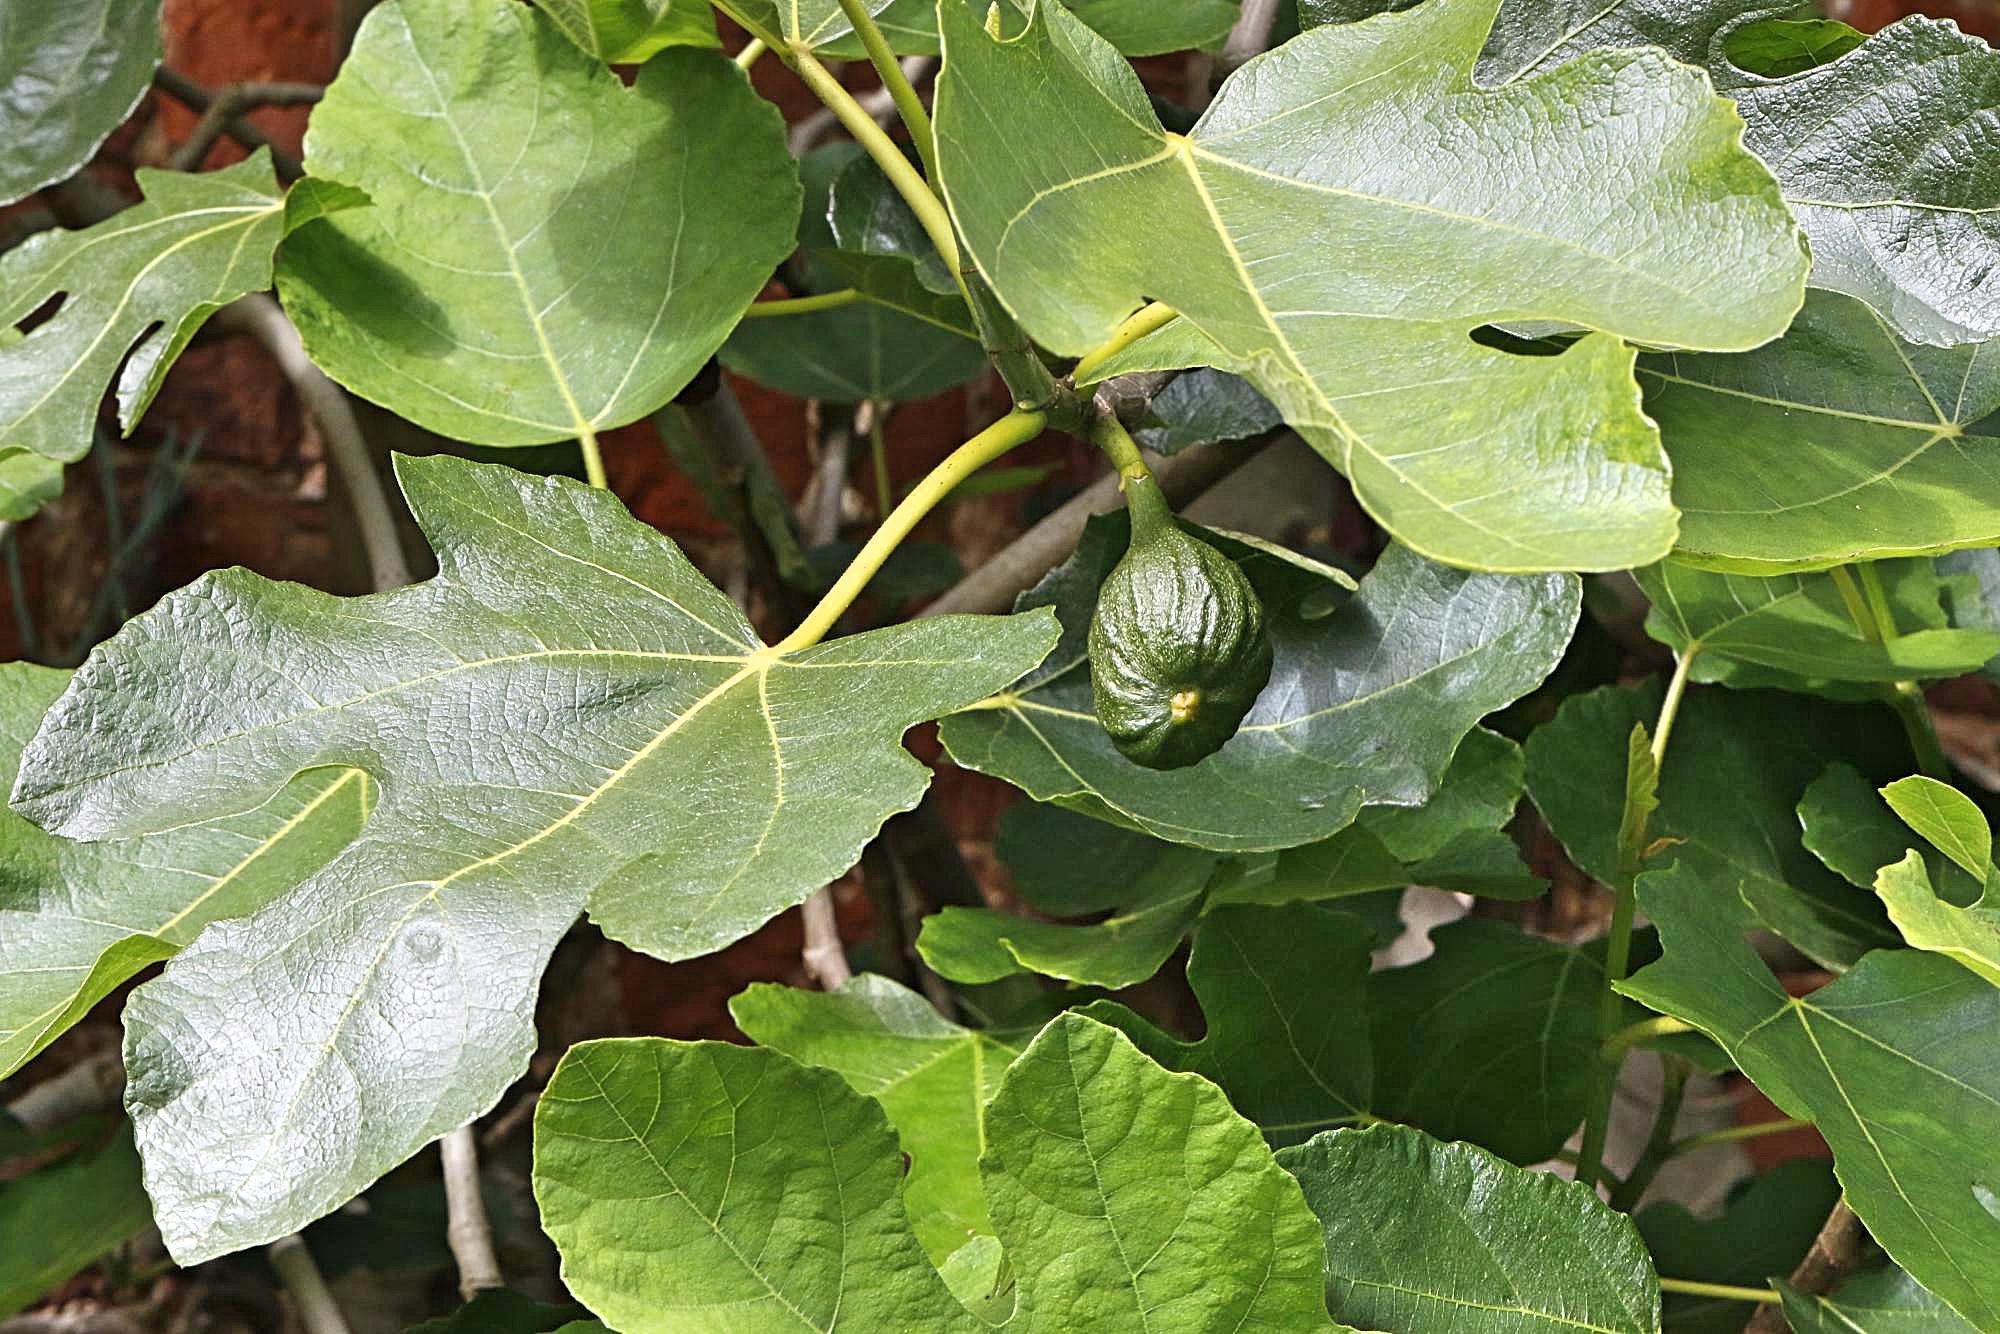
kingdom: Plantae
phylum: Tracheophyta
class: Magnoliopsida
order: Rosales
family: Moraceae
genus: Ficus
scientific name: Ficus carica
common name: Fig
